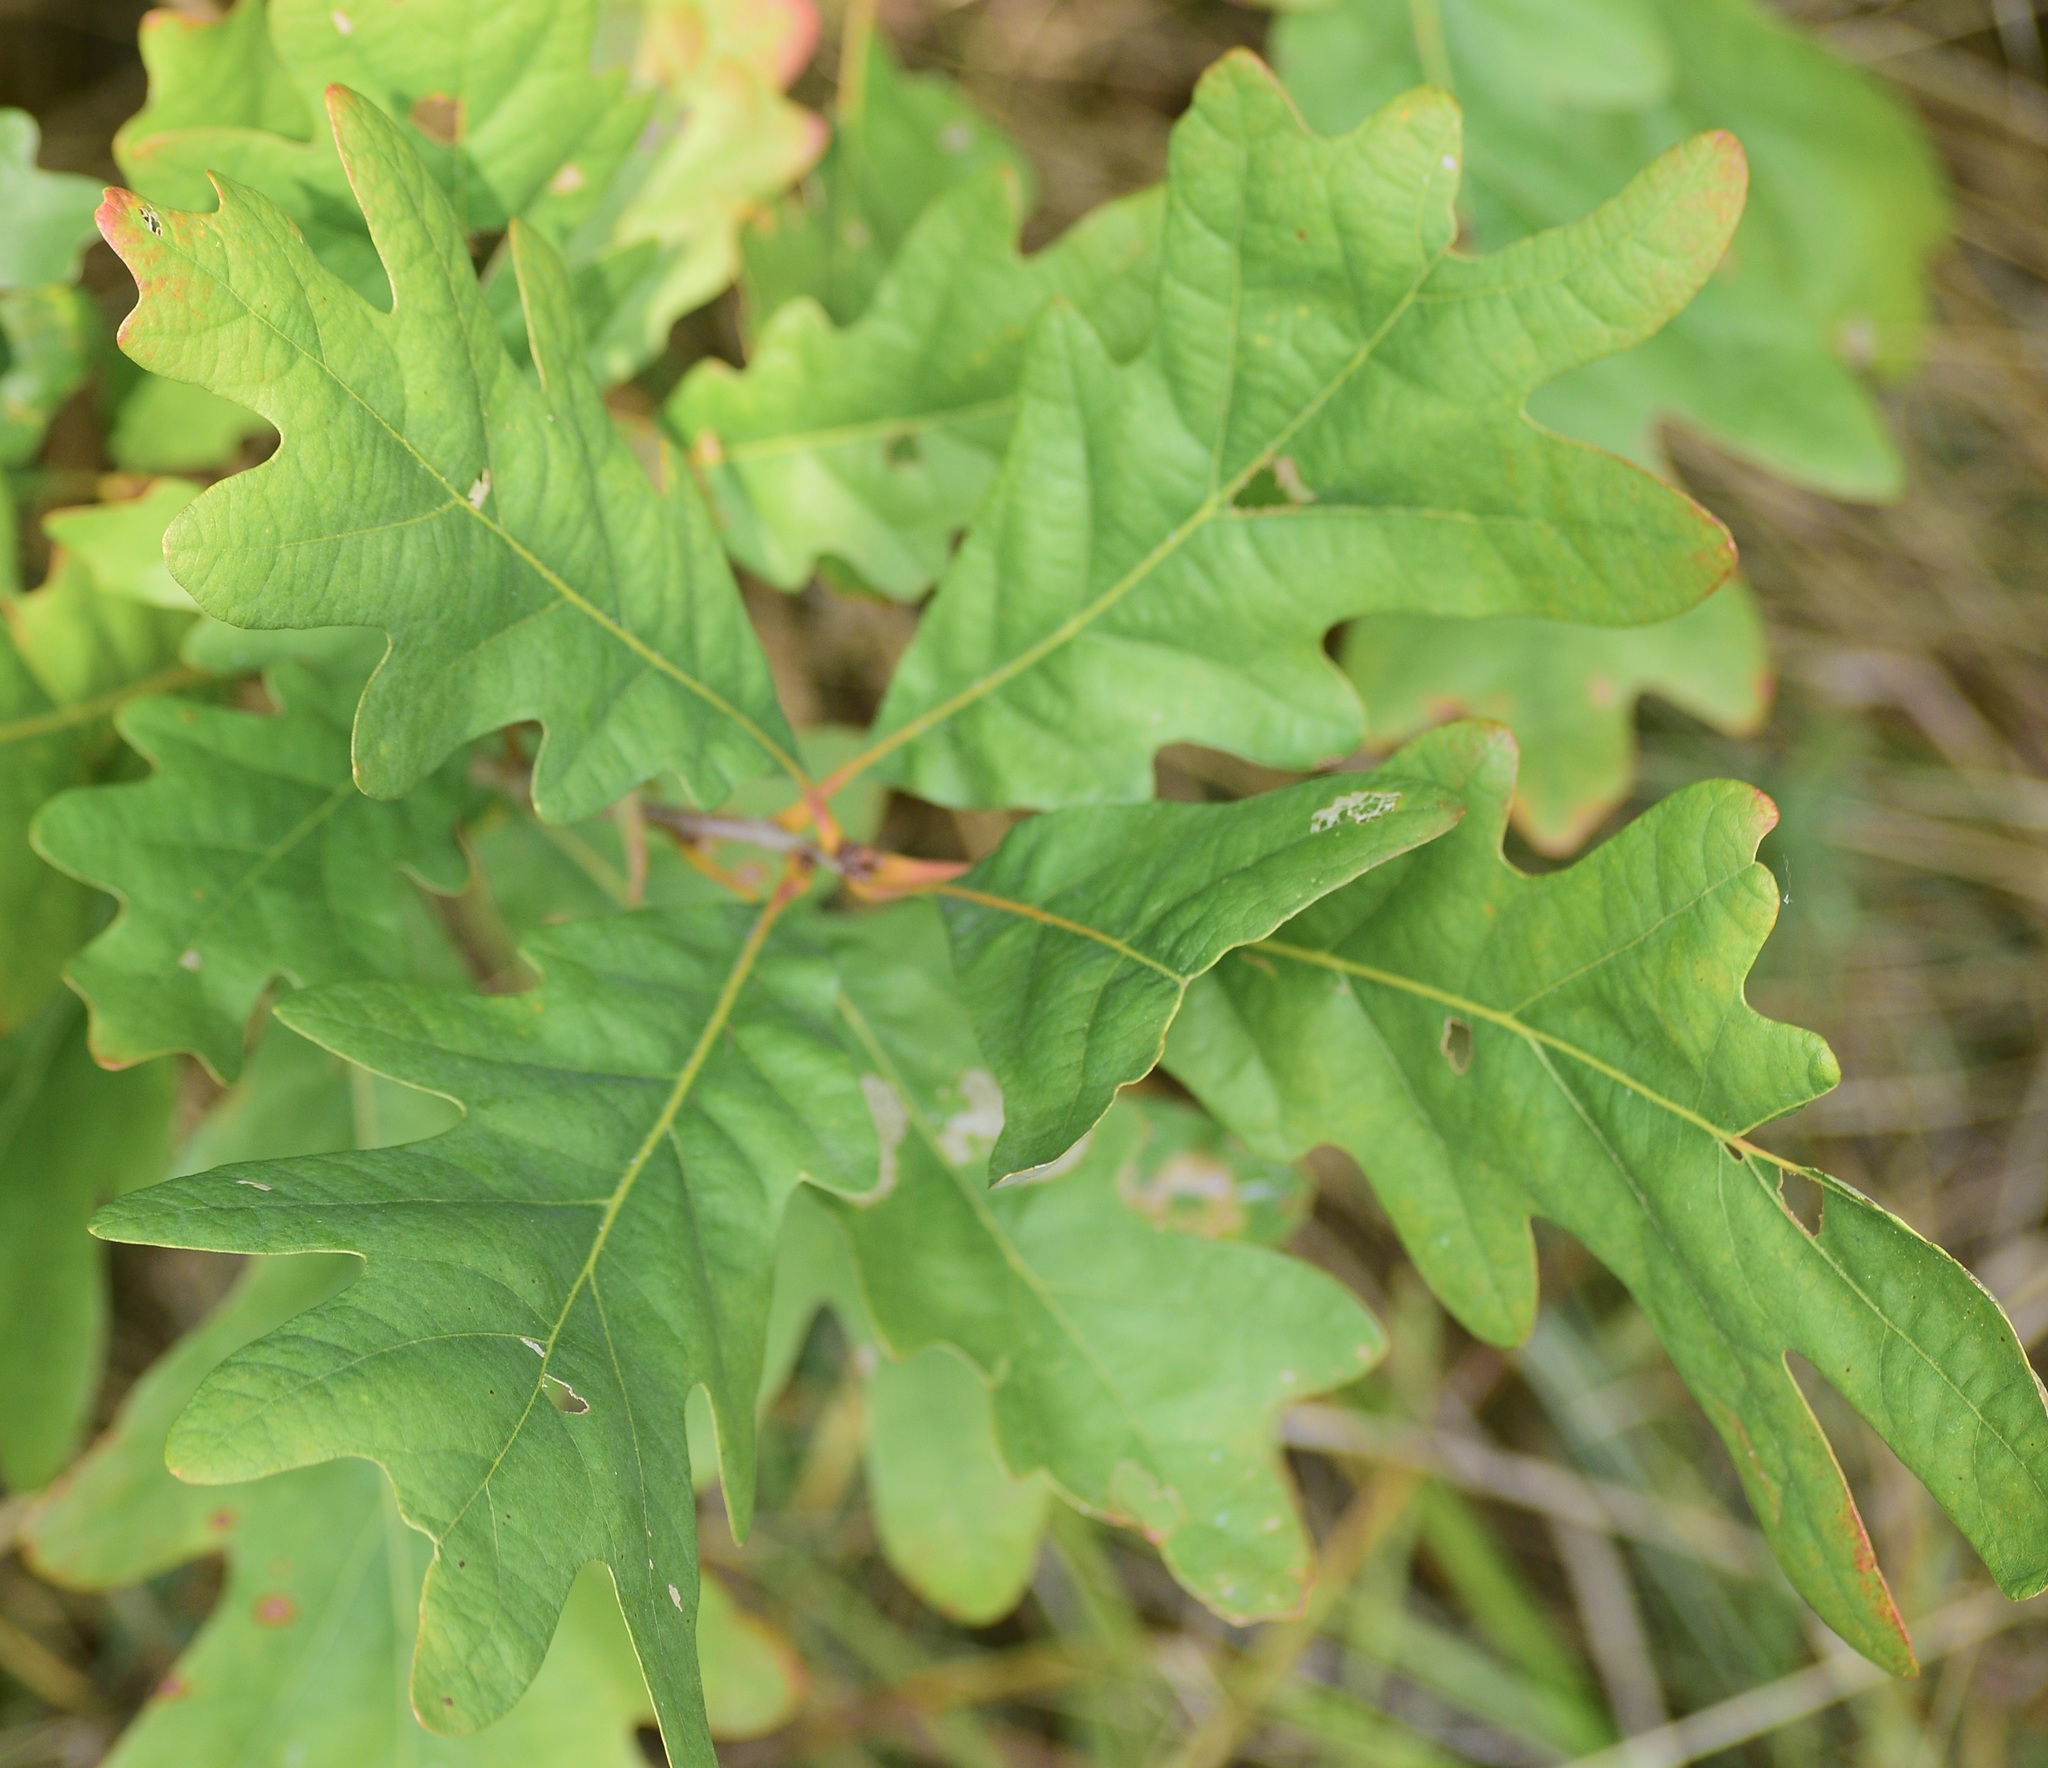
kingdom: Plantae
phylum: Tracheophyta
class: Magnoliopsida
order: Fagales
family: Fagaceae
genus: Quercus
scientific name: Quercus alba
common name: White oak
